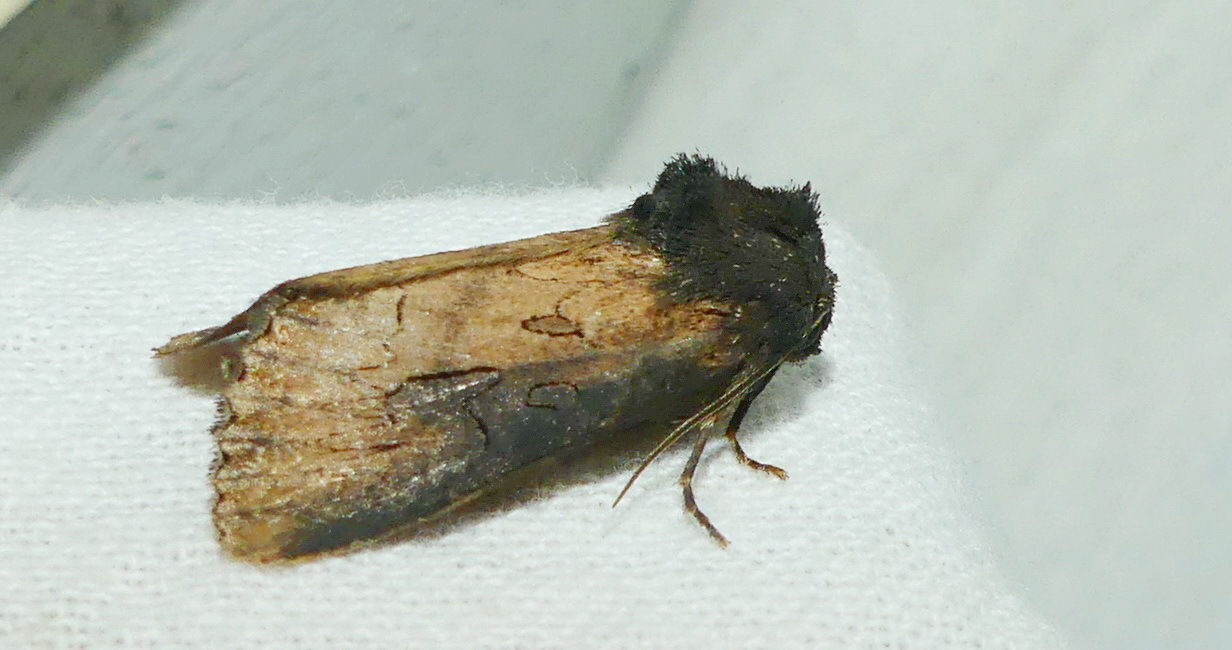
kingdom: Animalia
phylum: Arthropoda
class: Insecta
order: Lepidoptera
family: Noctuidae
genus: Macronoctua
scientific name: Macronoctua onusta
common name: Iris borer
